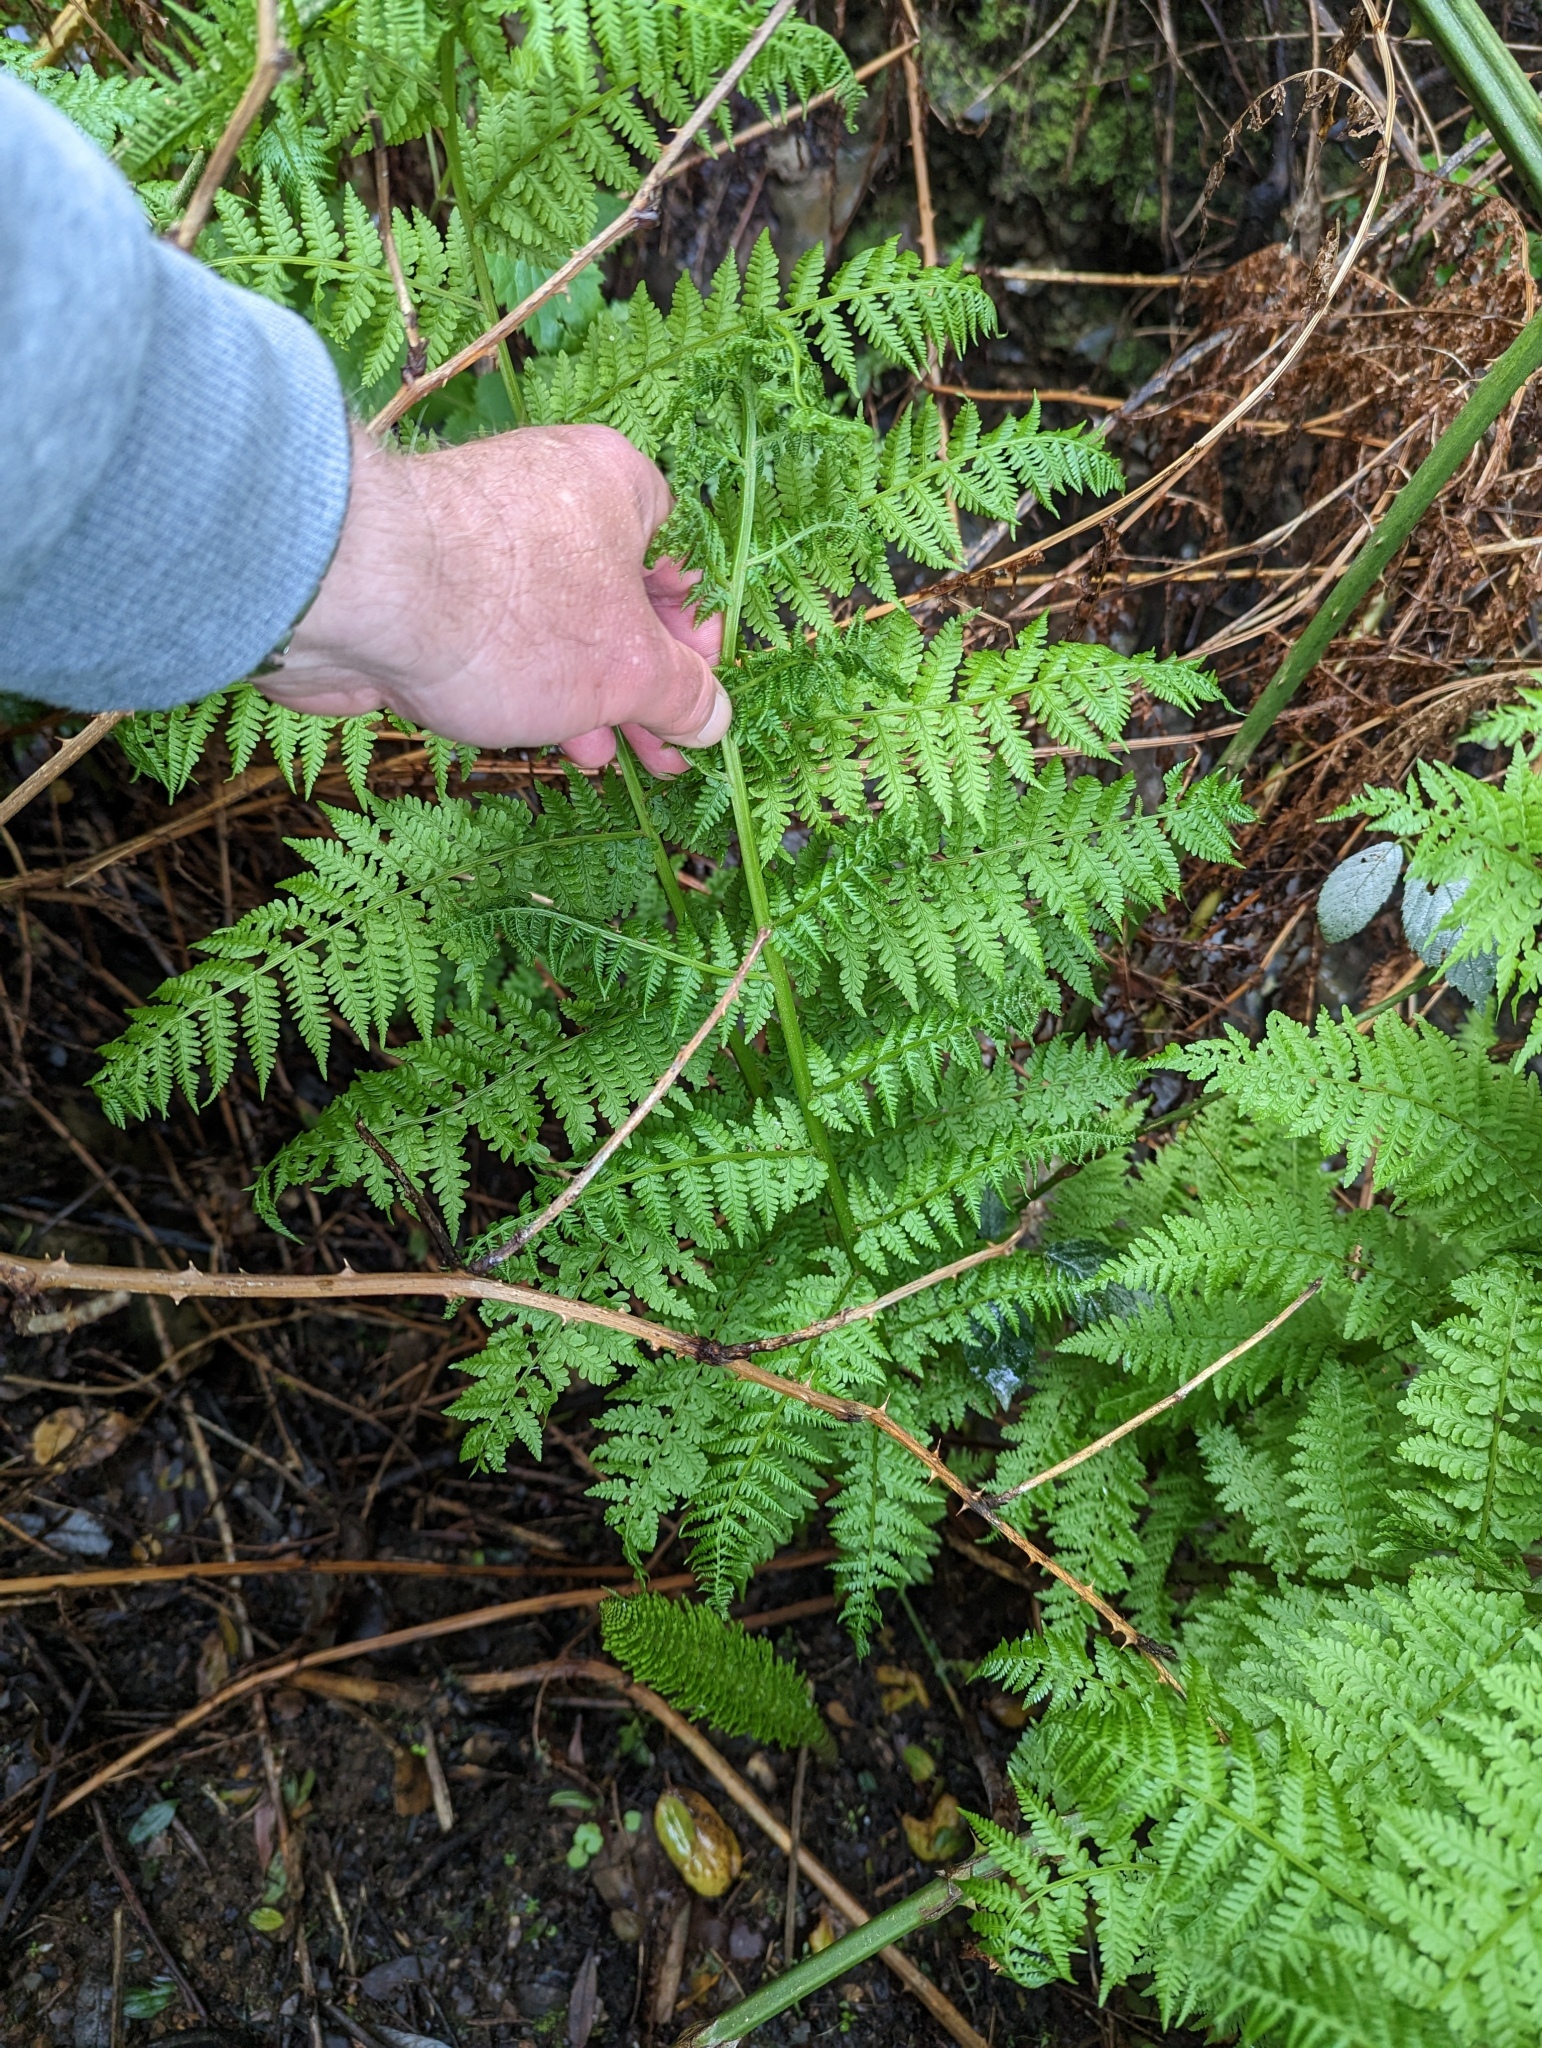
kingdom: Plantae
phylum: Tracheophyta
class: Polypodiopsida
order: Polypodiales
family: Athyriaceae
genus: Athyrium
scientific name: Athyrium filix-femina
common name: Lady fern
